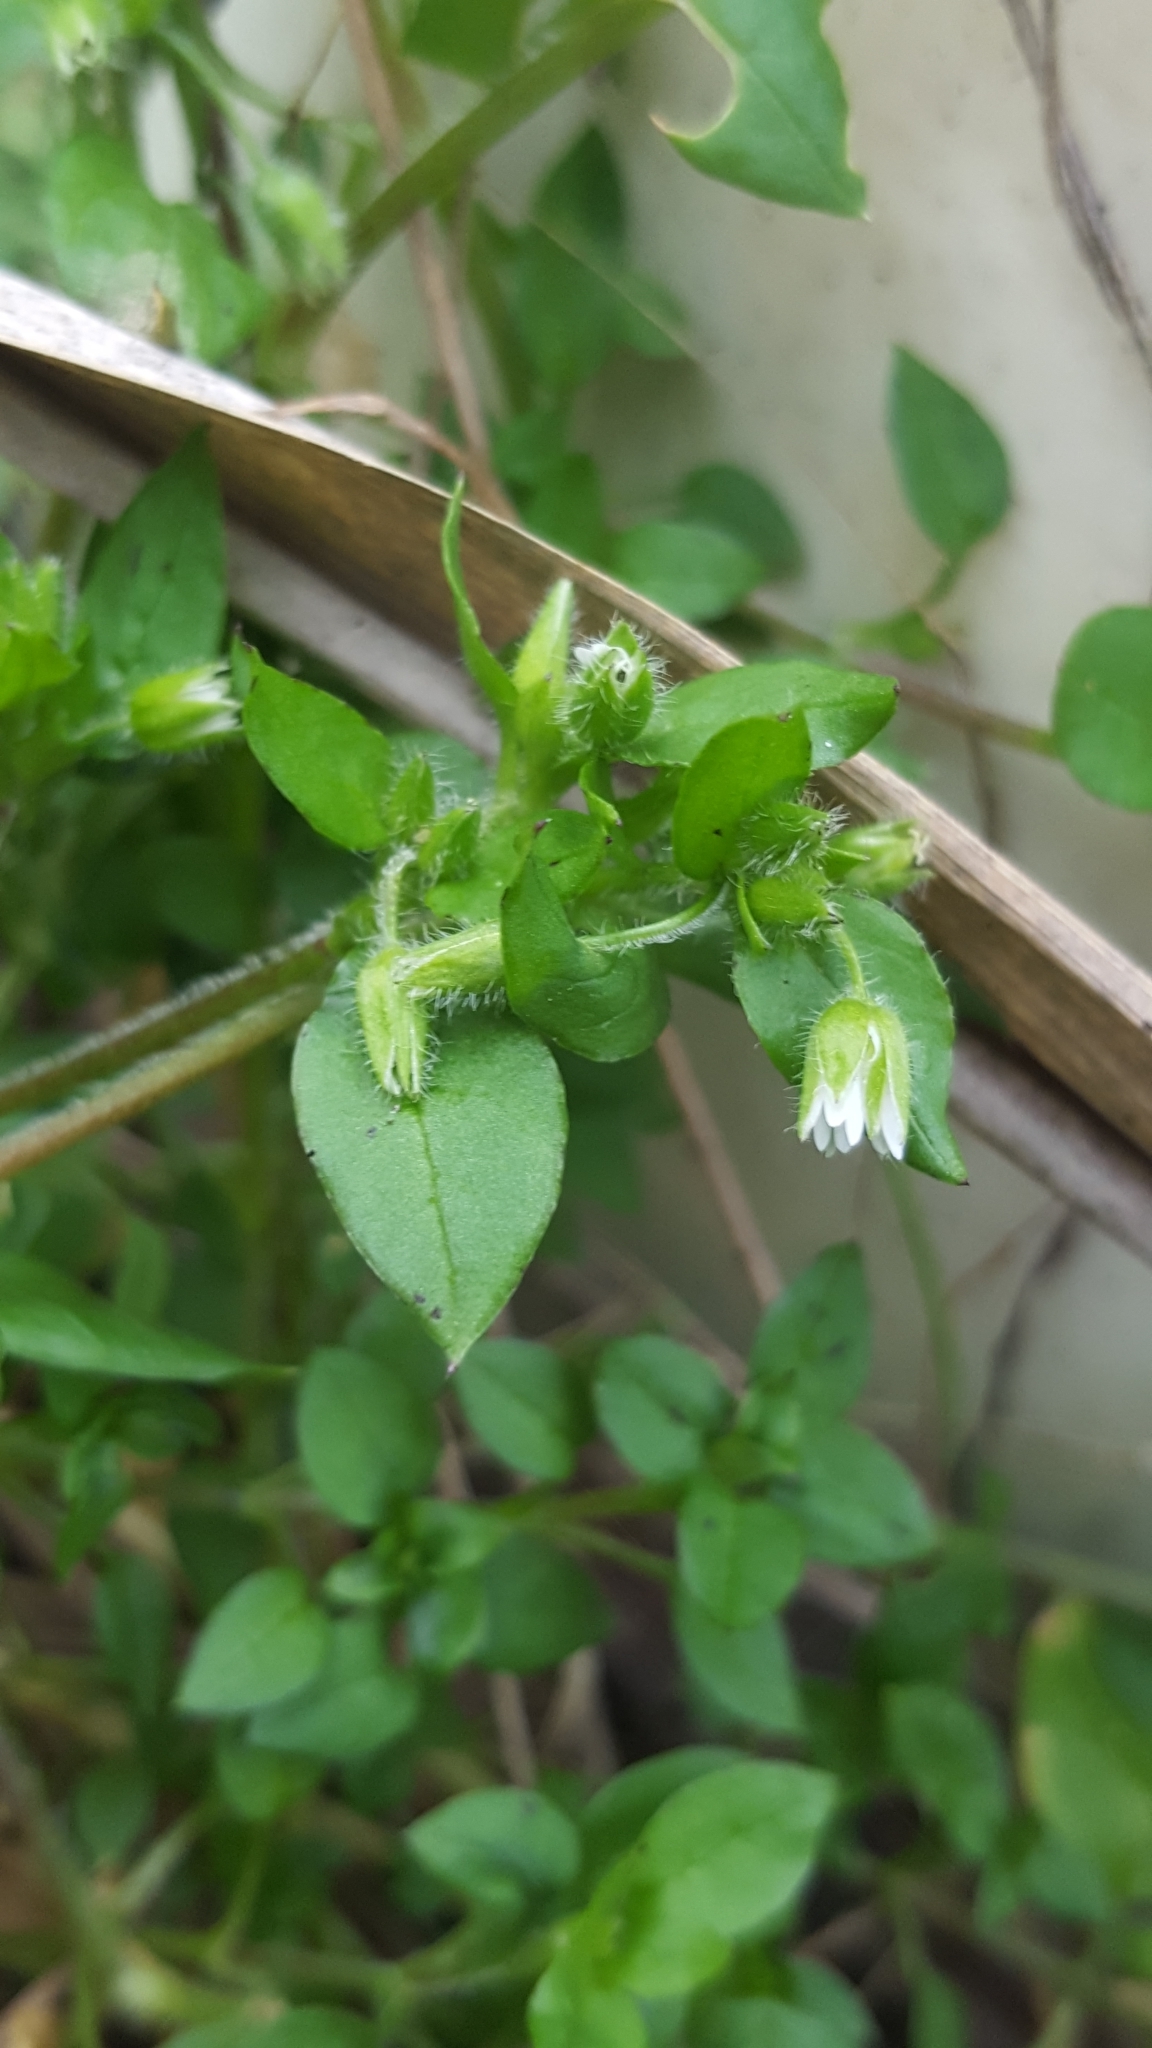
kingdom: Plantae
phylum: Tracheophyta
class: Magnoliopsida
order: Caryophyllales
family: Caryophyllaceae
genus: Stellaria
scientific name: Stellaria media
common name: Common chickweed
